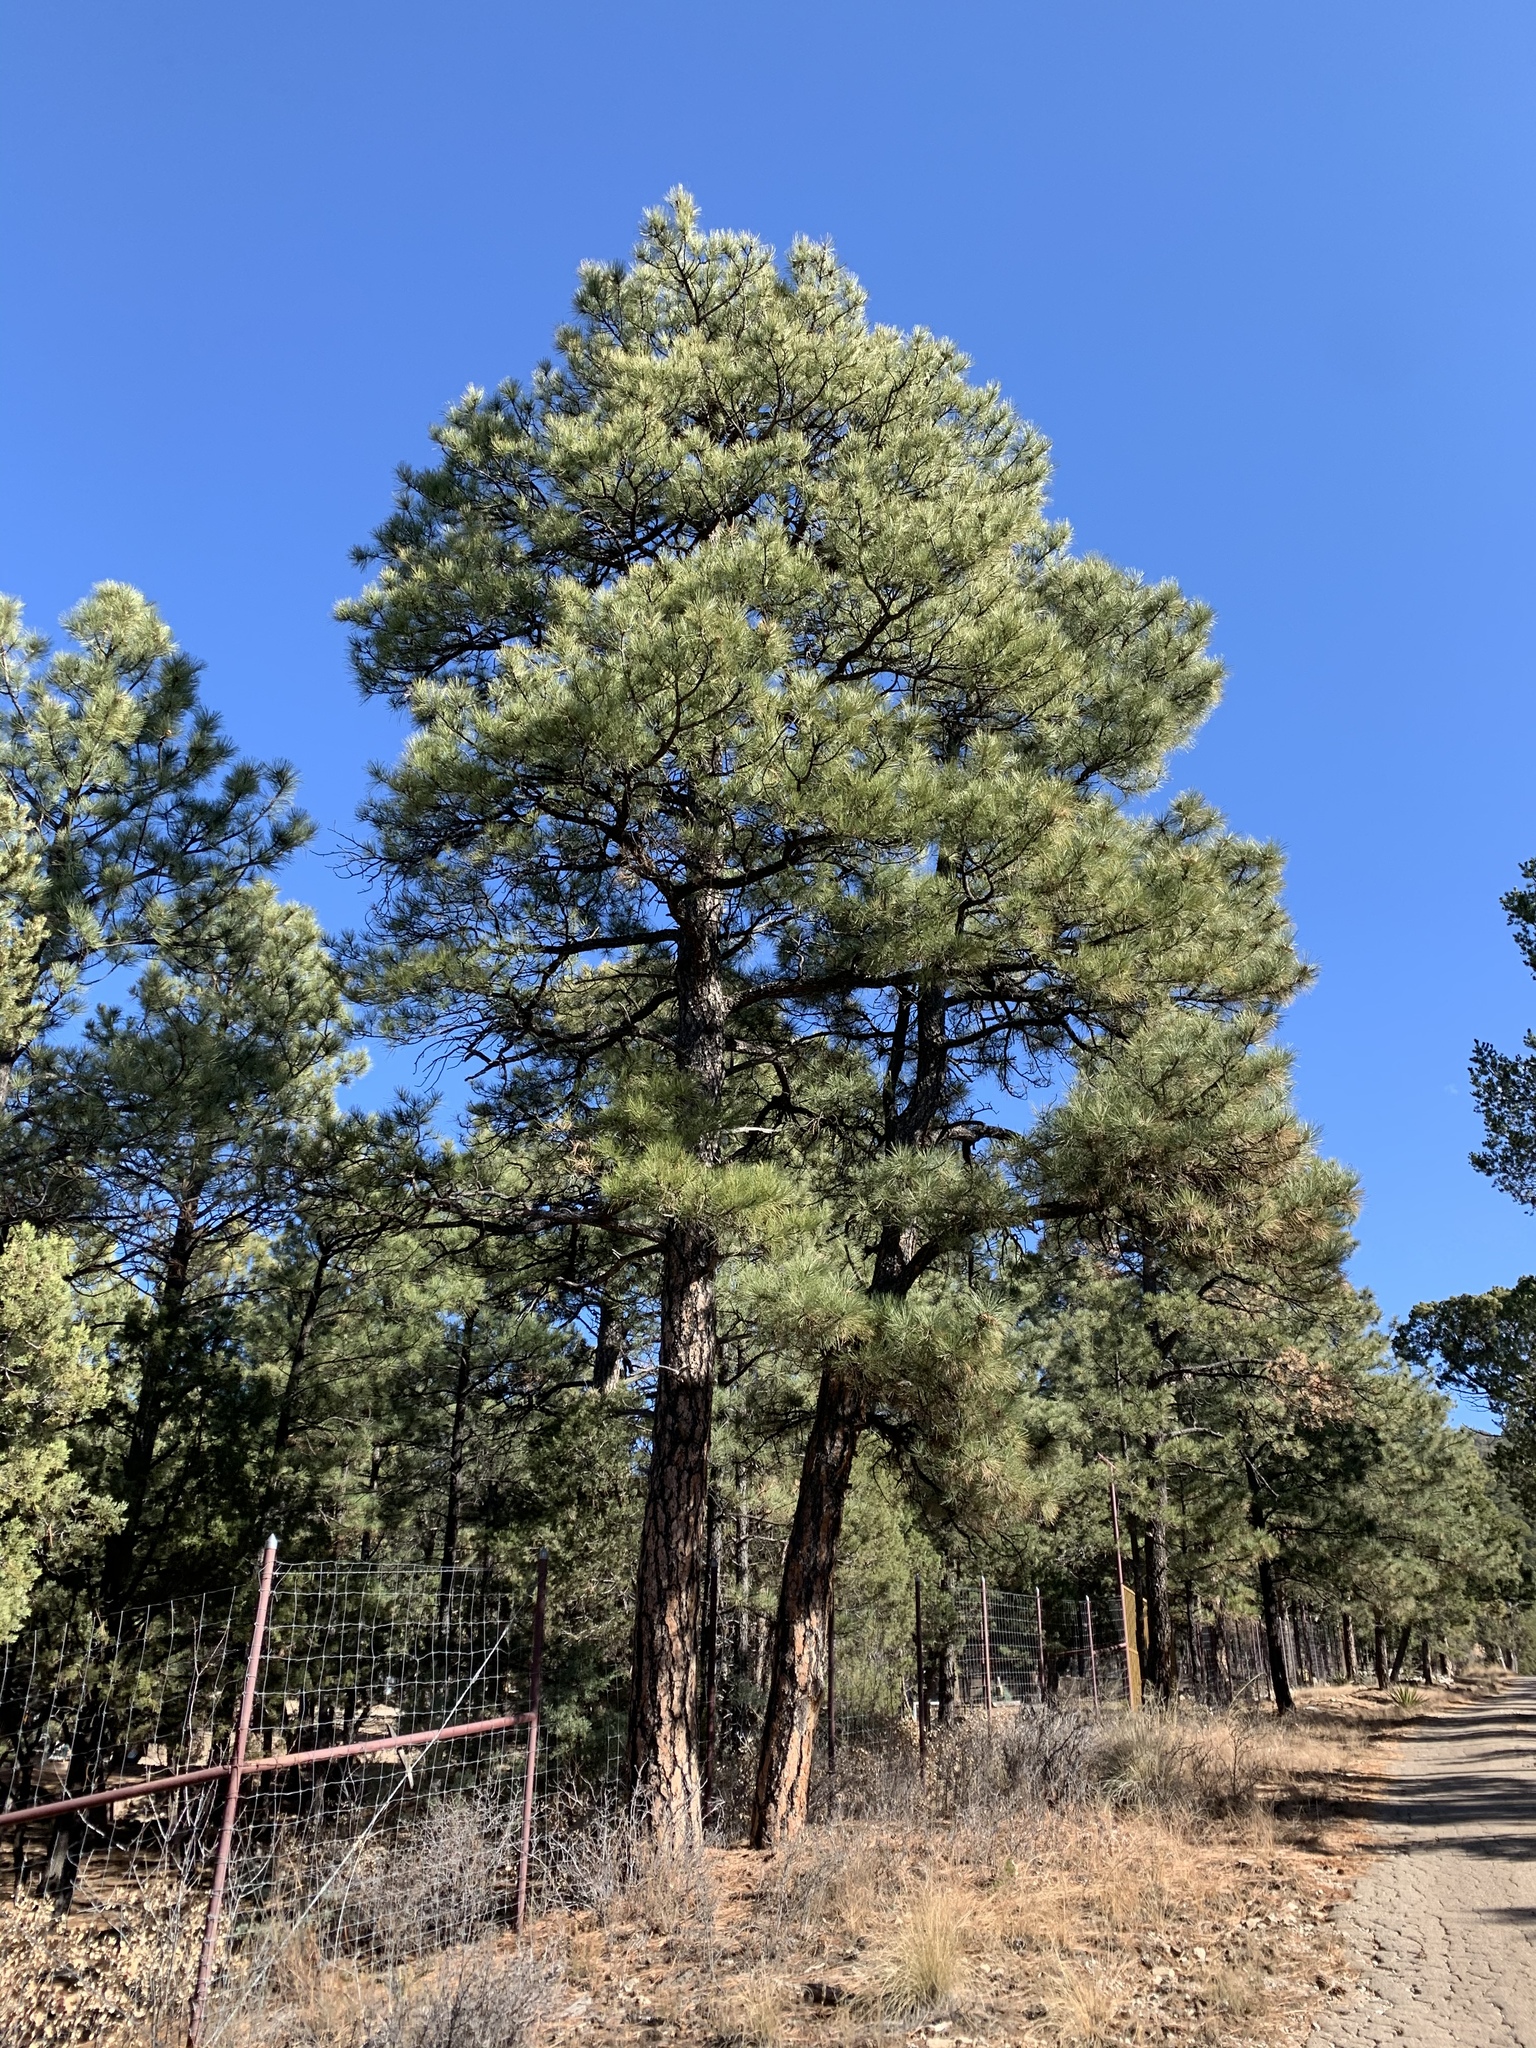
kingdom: Plantae
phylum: Tracheophyta
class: Pinopsida
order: Pinales
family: Pinaceae
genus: Pinus
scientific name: Pinus ponderosa
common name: Western yellow-pine
